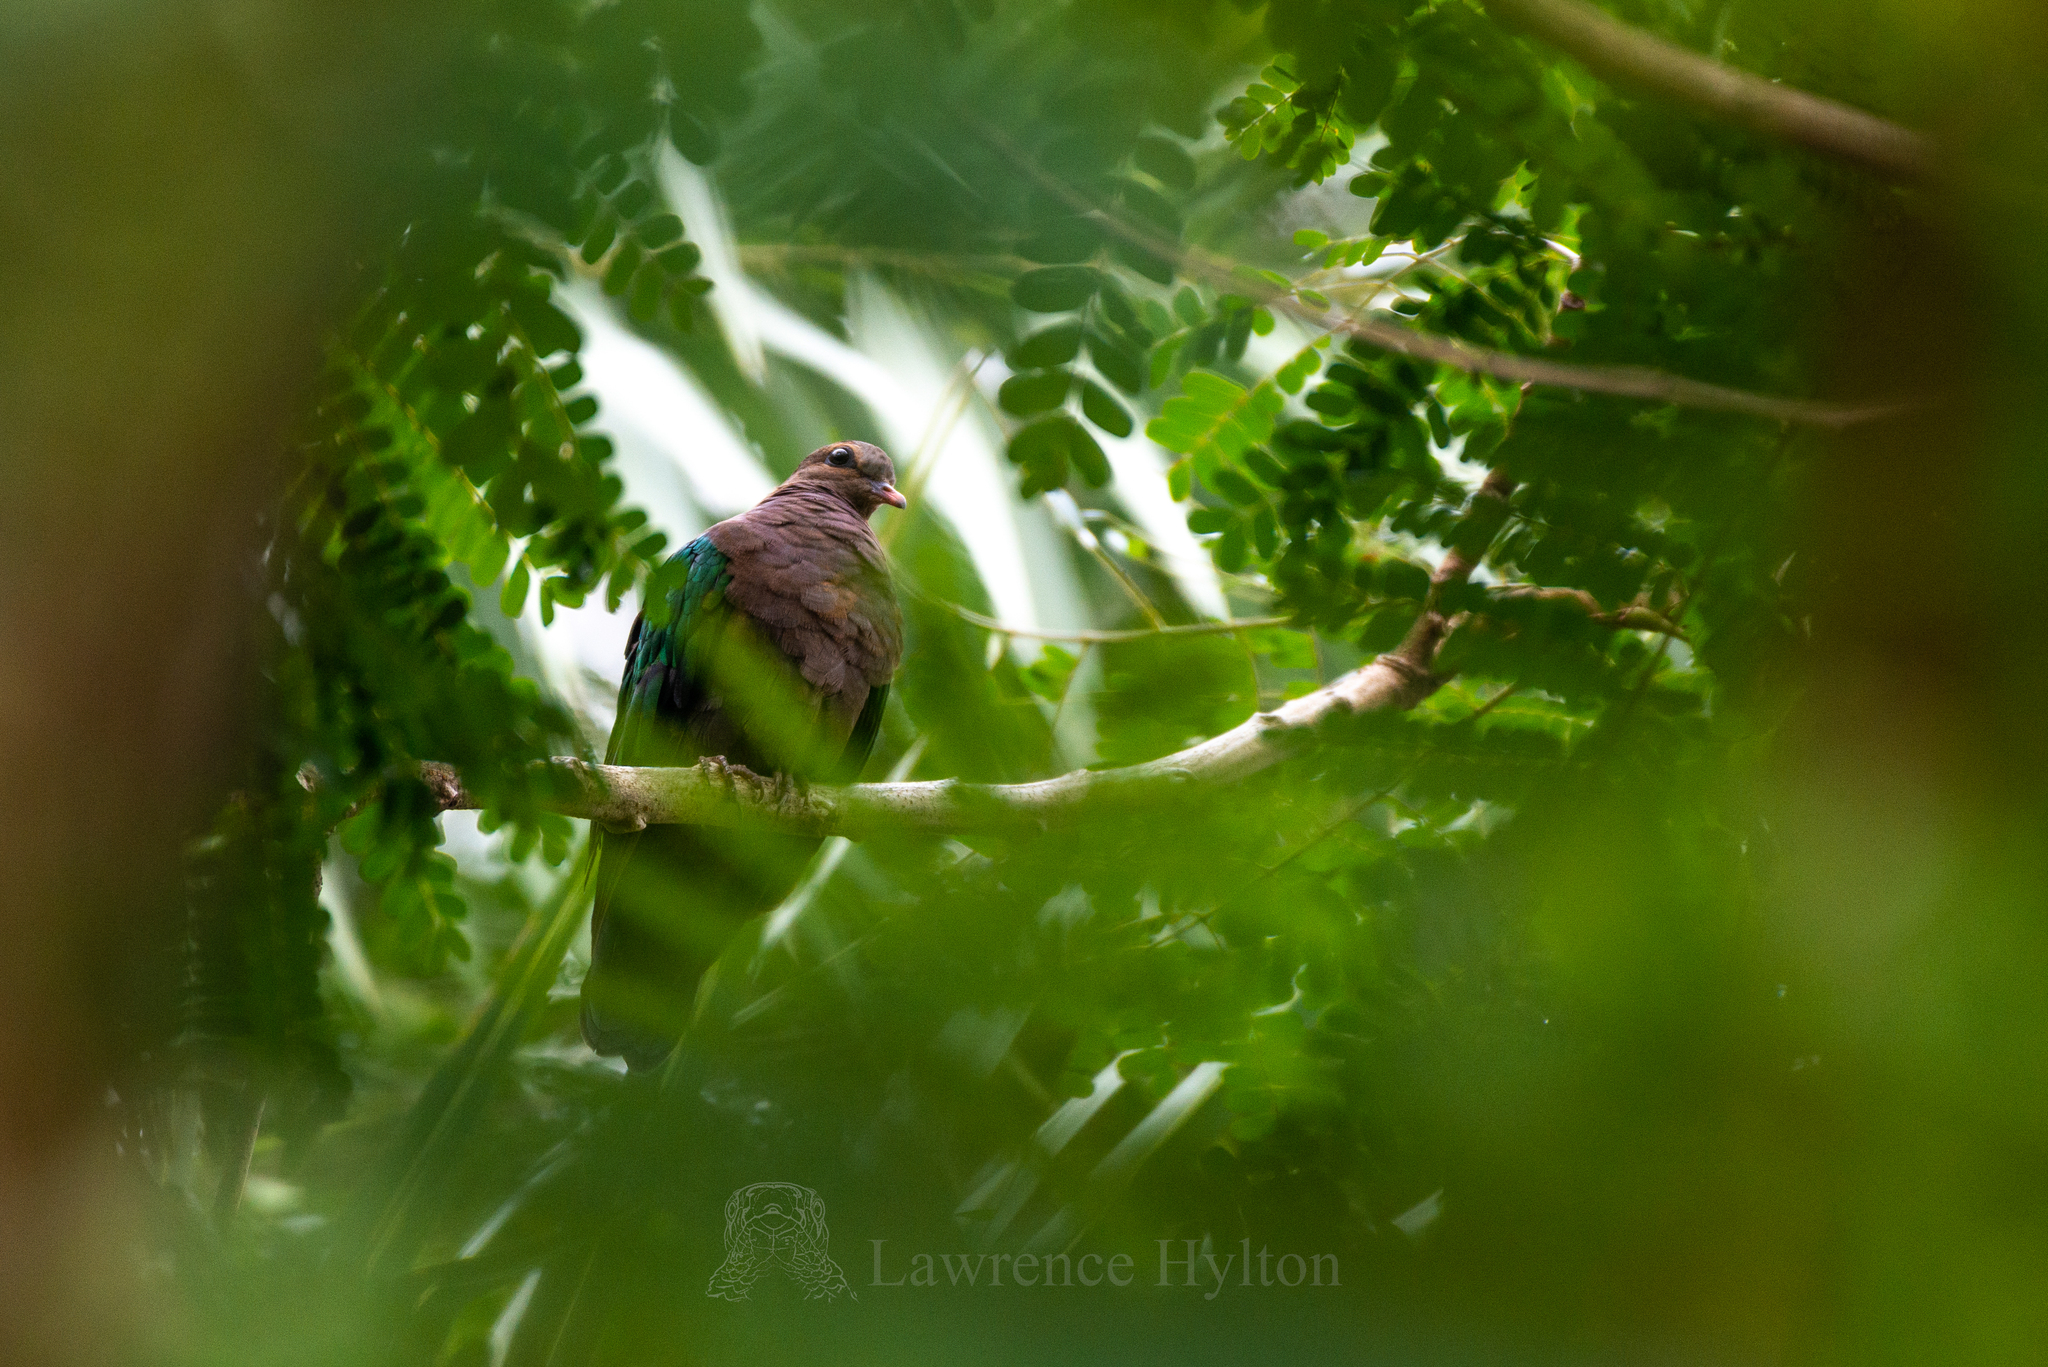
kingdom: Animalia
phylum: Chordata
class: Aves
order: Columbiformes
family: Columbidae
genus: Chalcophaps
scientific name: Chalcophaps indica
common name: Common emerald dove
